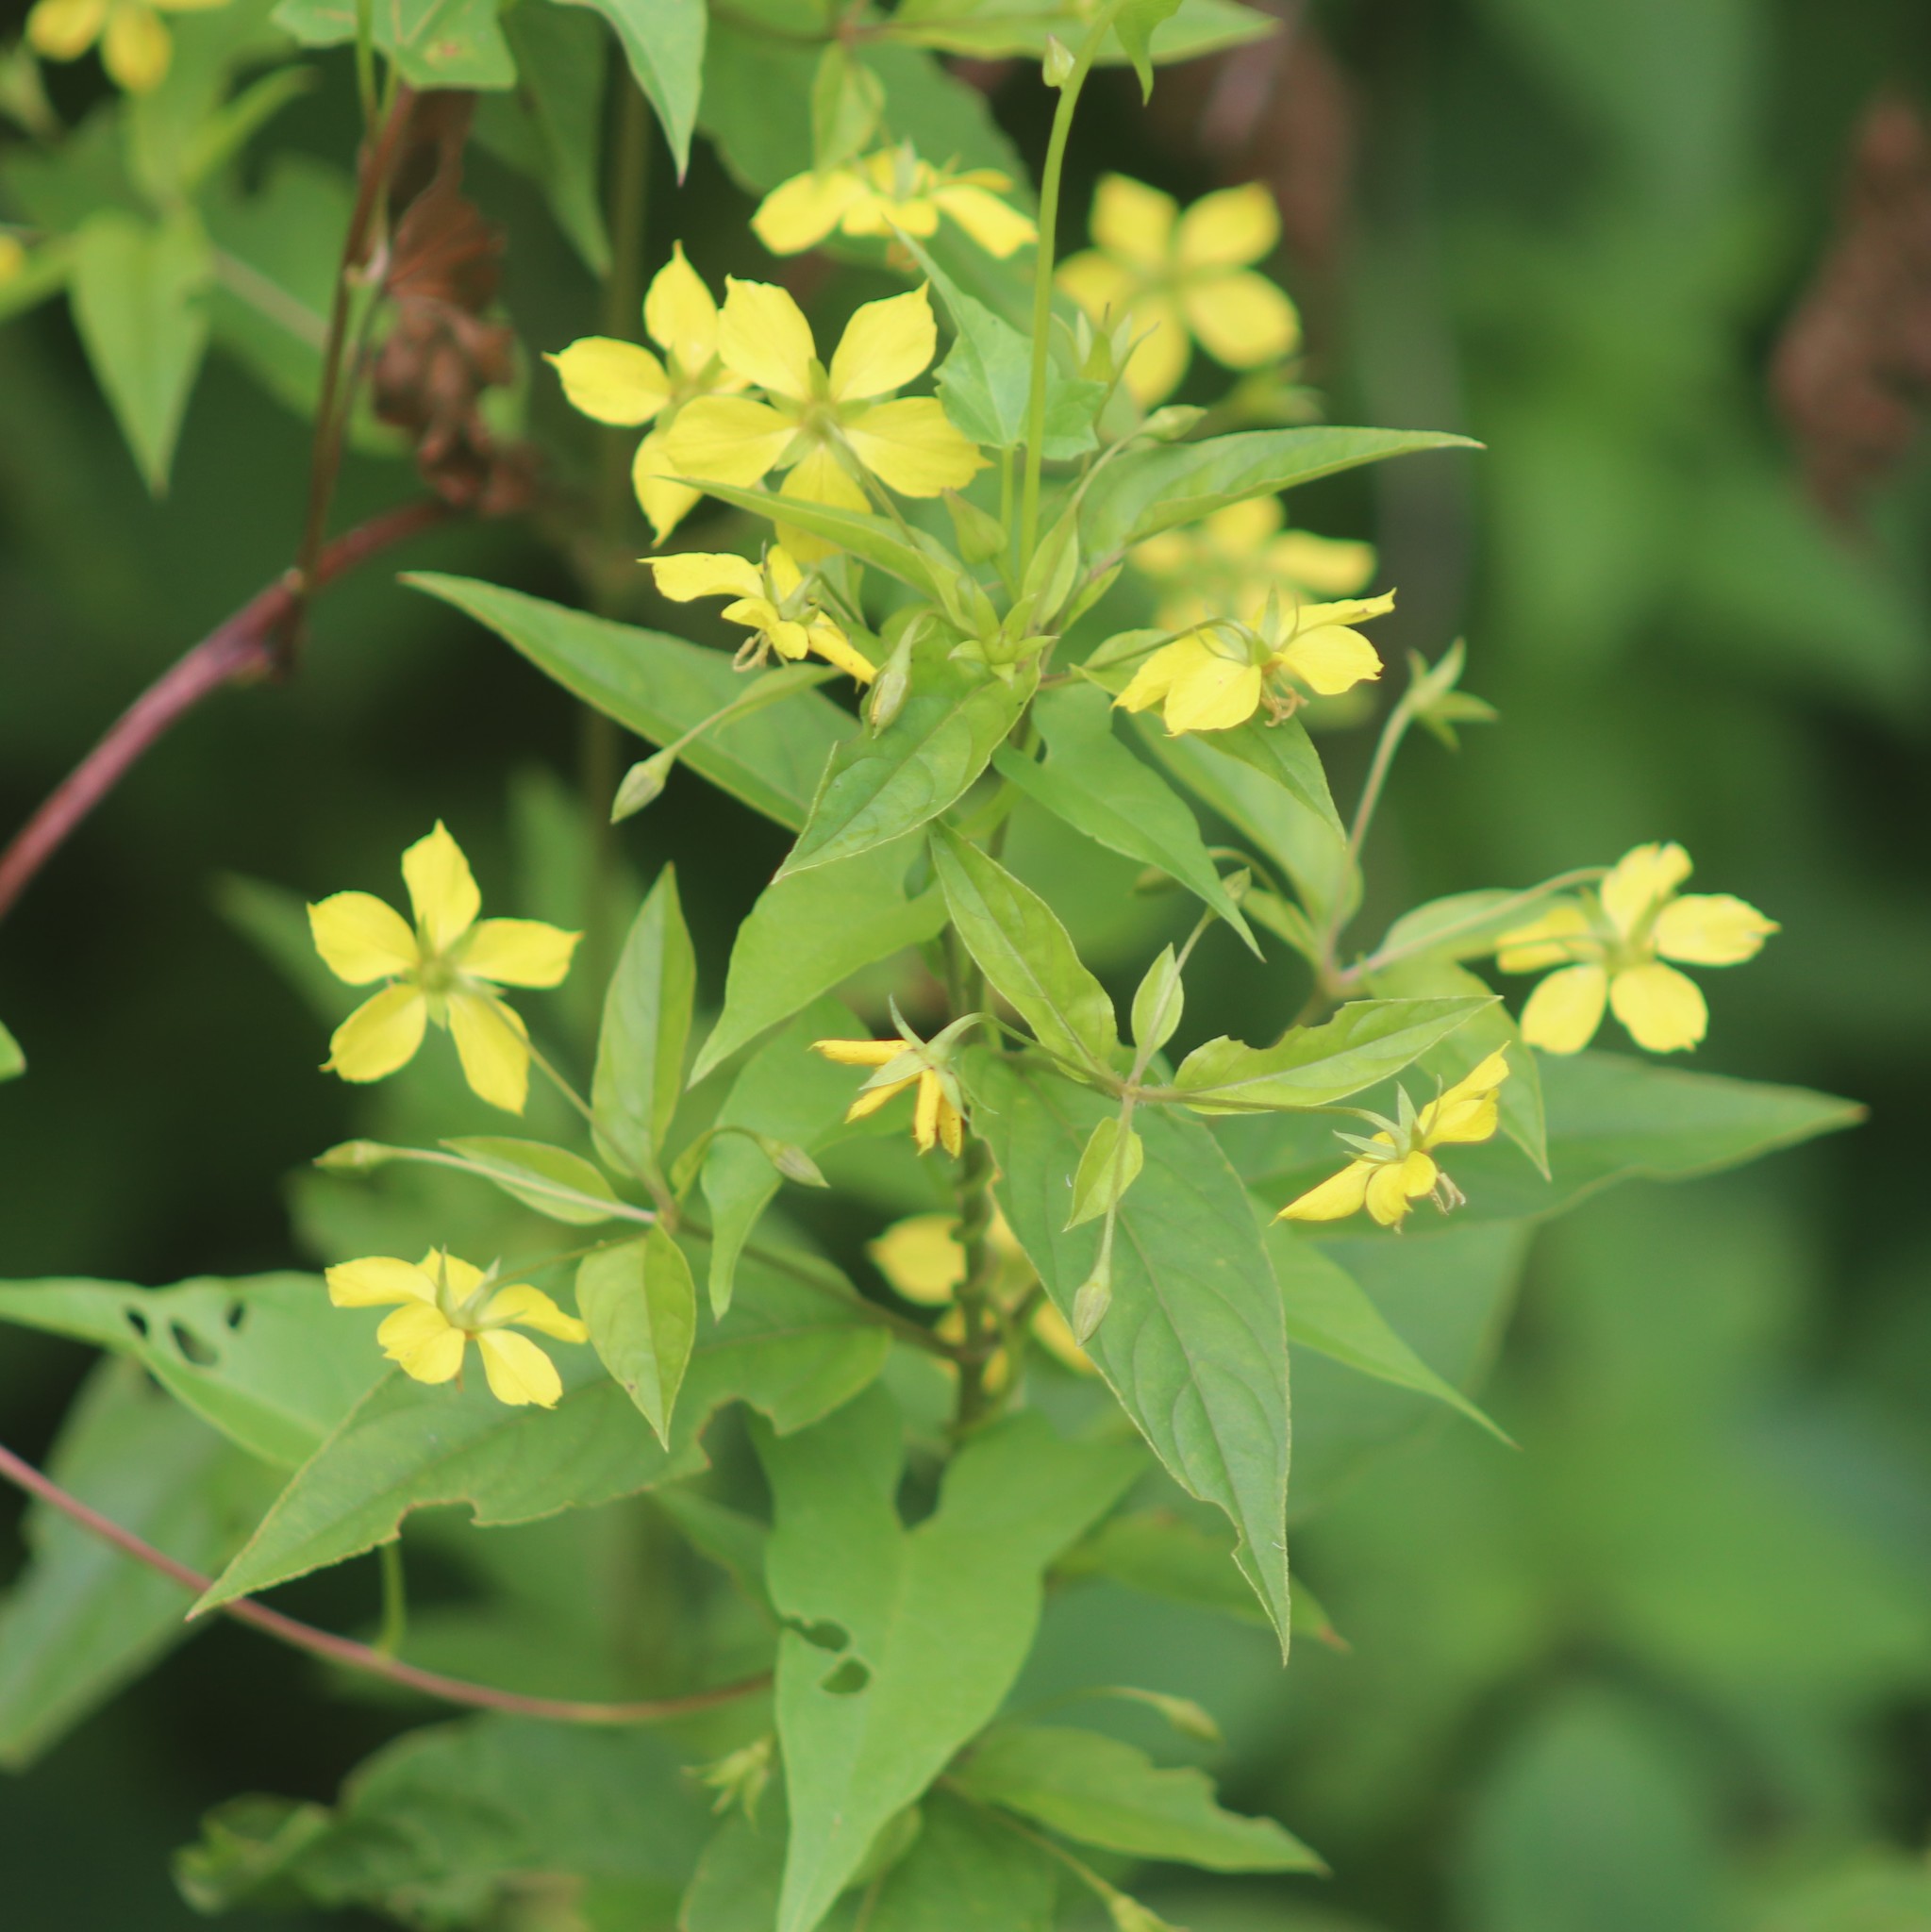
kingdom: Plantae
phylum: Tracheophyta
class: Magnoliopsida
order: Ericales
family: Primulaceae
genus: Lysimachia
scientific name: Lysimachia ciliata
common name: Fringed loosestrife
